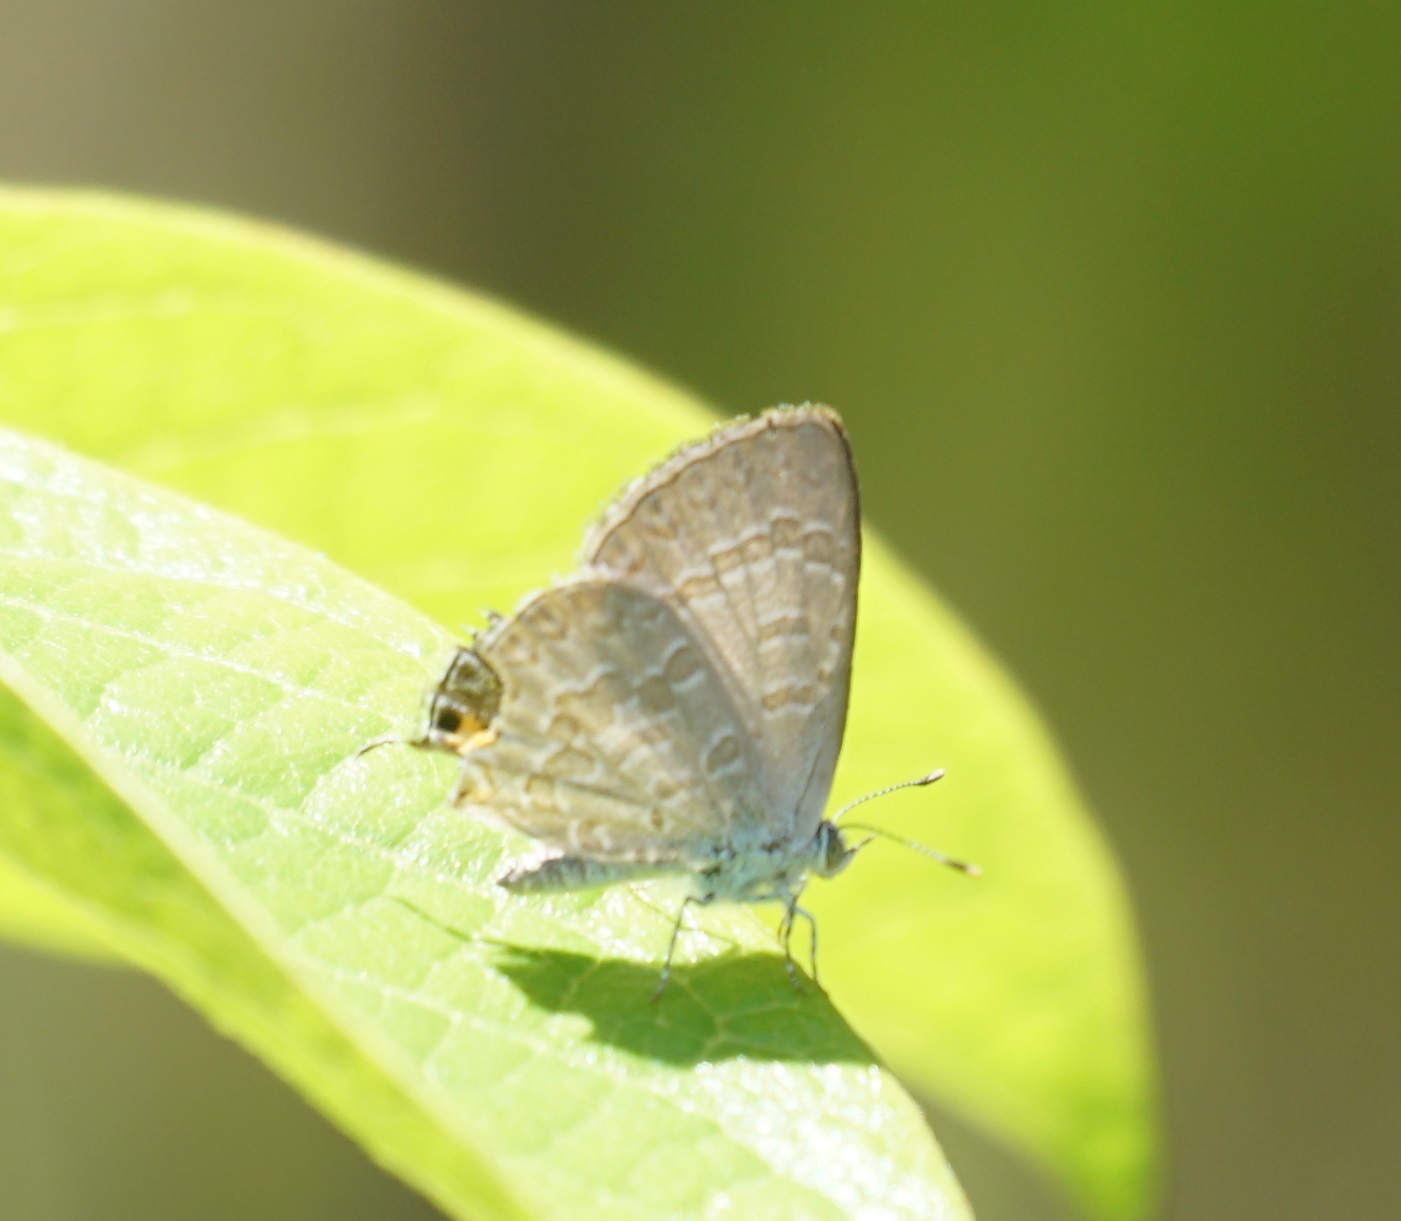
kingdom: Animalia
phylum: Arthropoda
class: Insecta
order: Lepidoptera
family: Lycaenidae
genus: Catopyrops
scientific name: Catopyrops florinda
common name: Speckled line-blue
